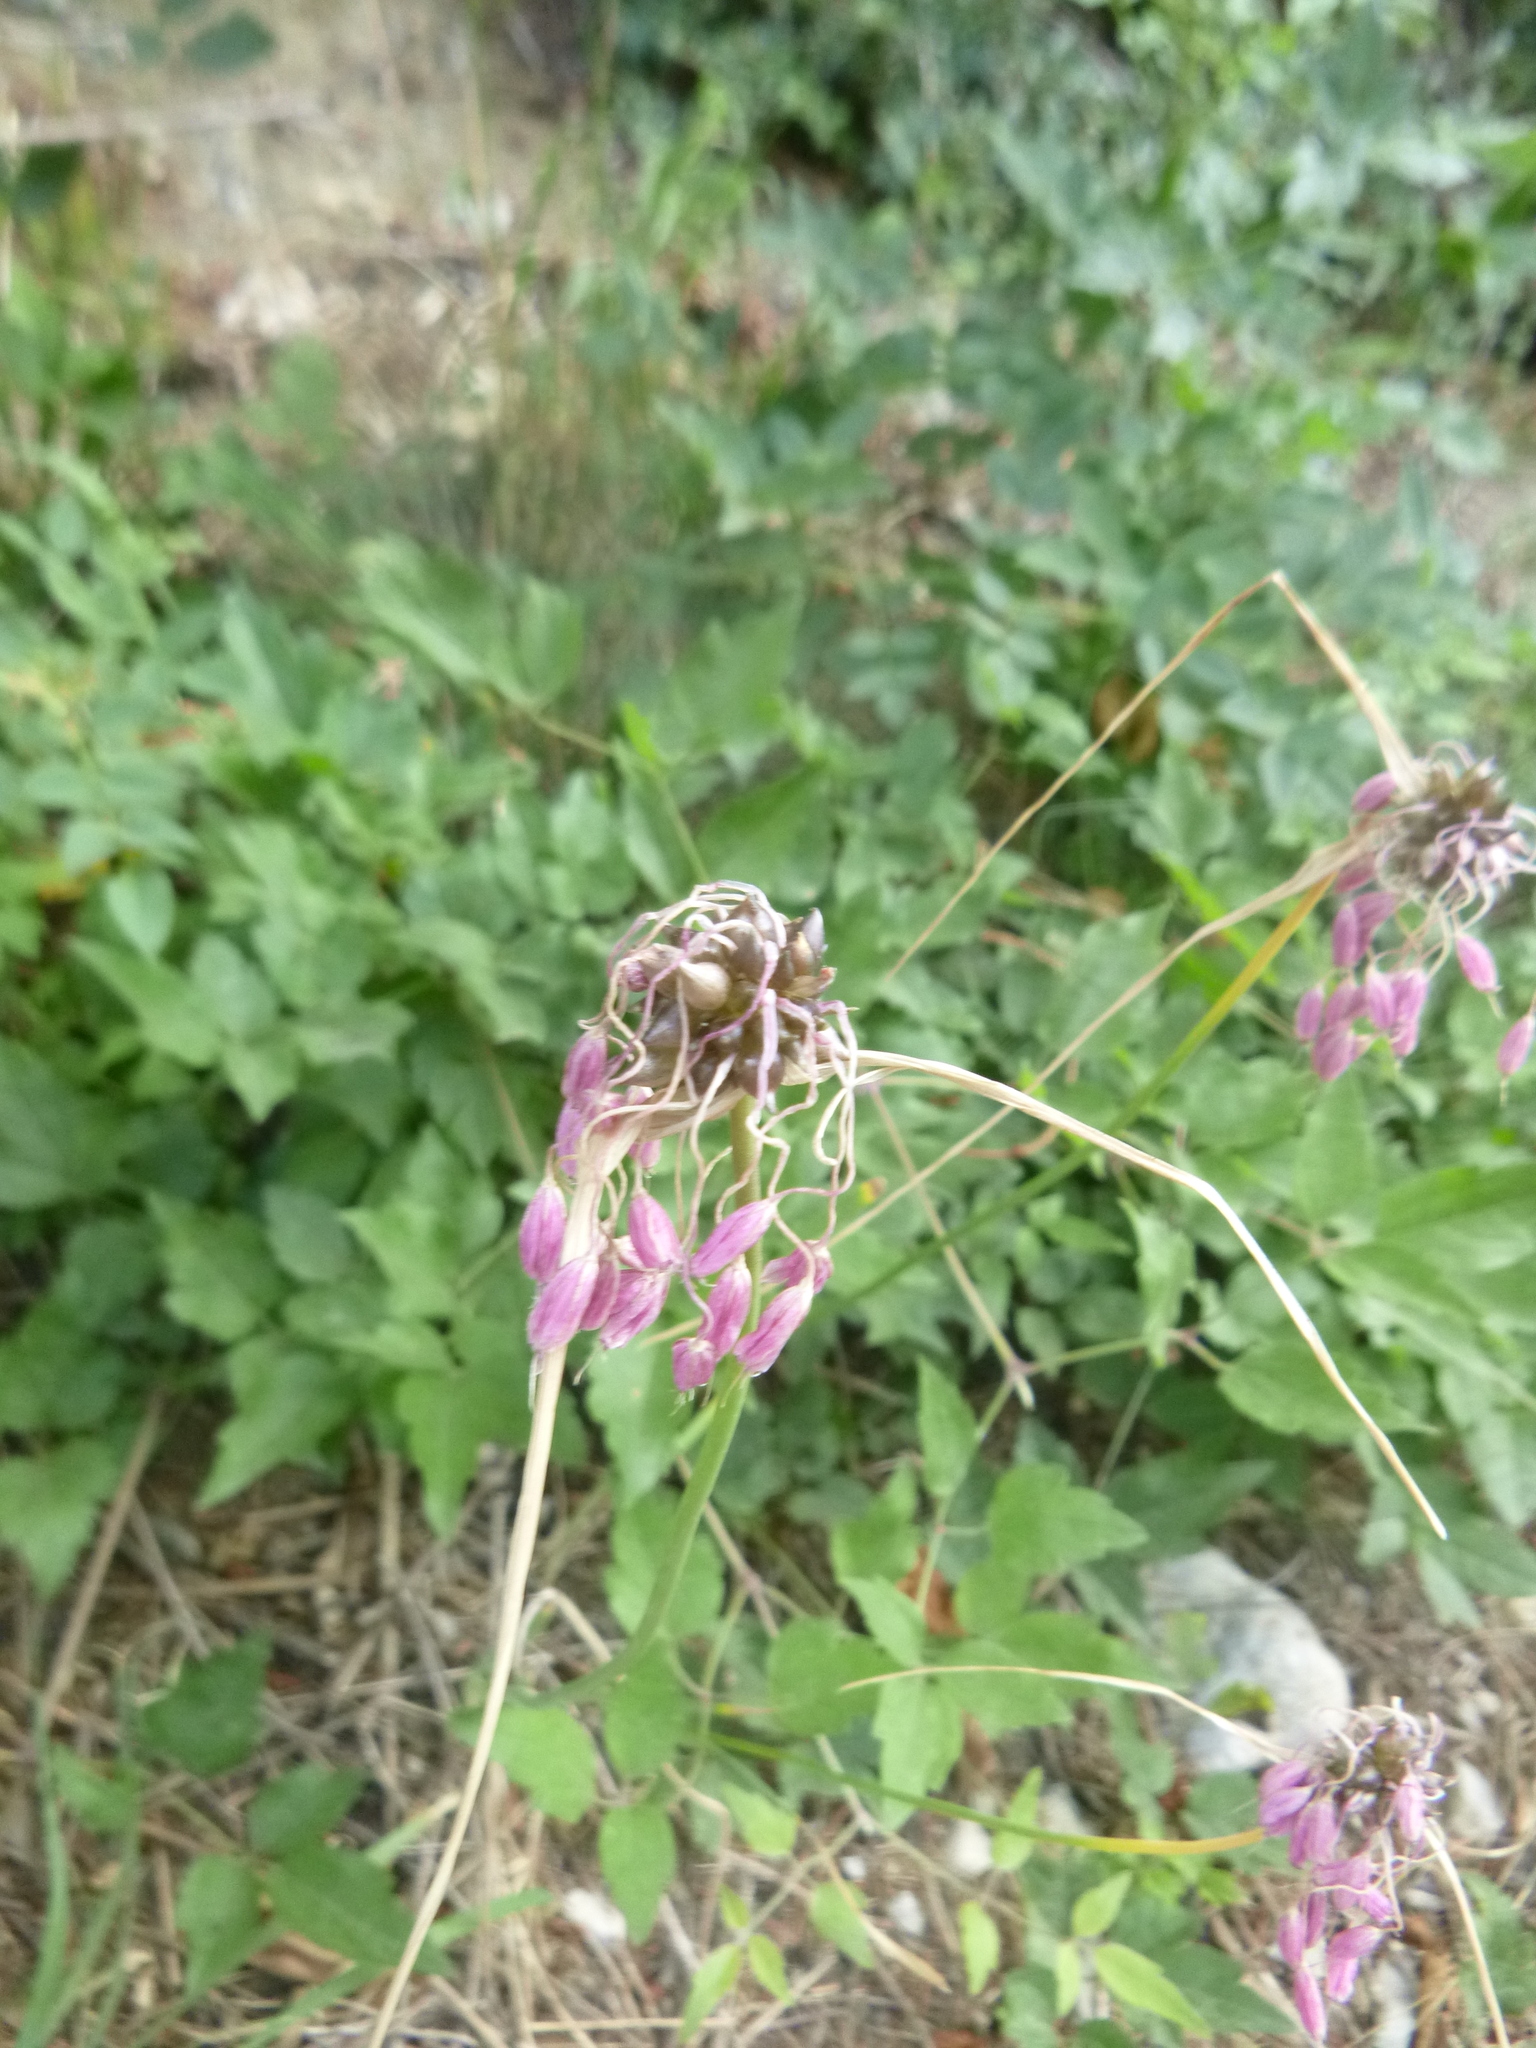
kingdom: Plantae
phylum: Tracheophyta
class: Liliopsida
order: Asparagales
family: Amaryllidaceae
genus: Allium
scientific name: Allium carinatum
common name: Keeled garlic
